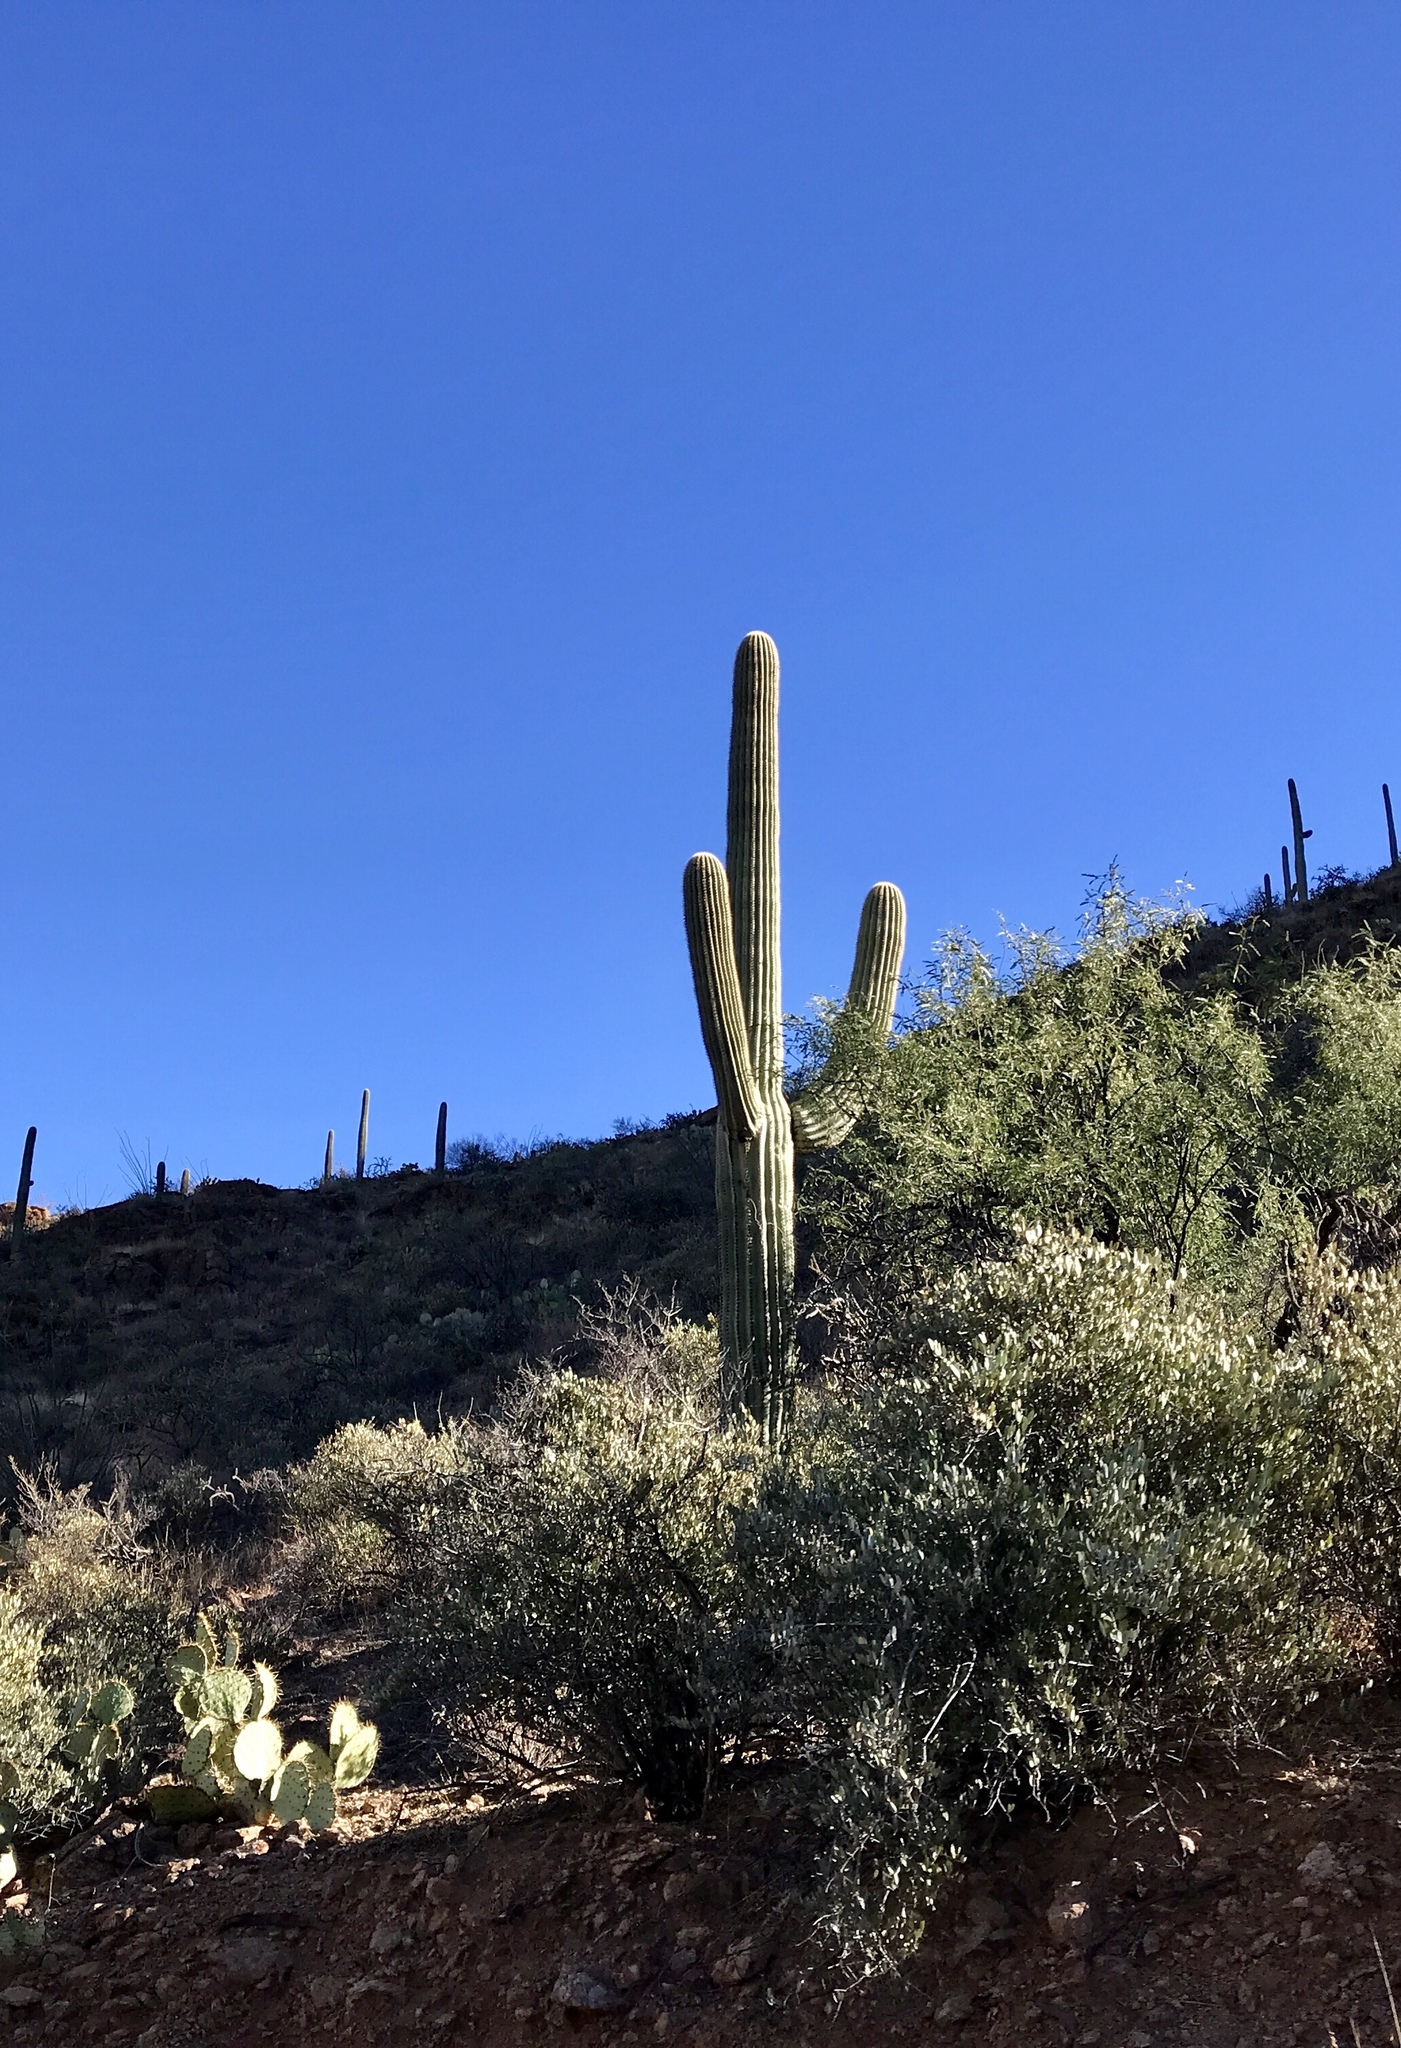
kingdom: Plantae
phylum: Tracheophyta
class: Magnoliopsida
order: Caryophyllales
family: Cactaceae
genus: Carnegiea
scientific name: Carnegiea gigantea
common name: Saguaro
